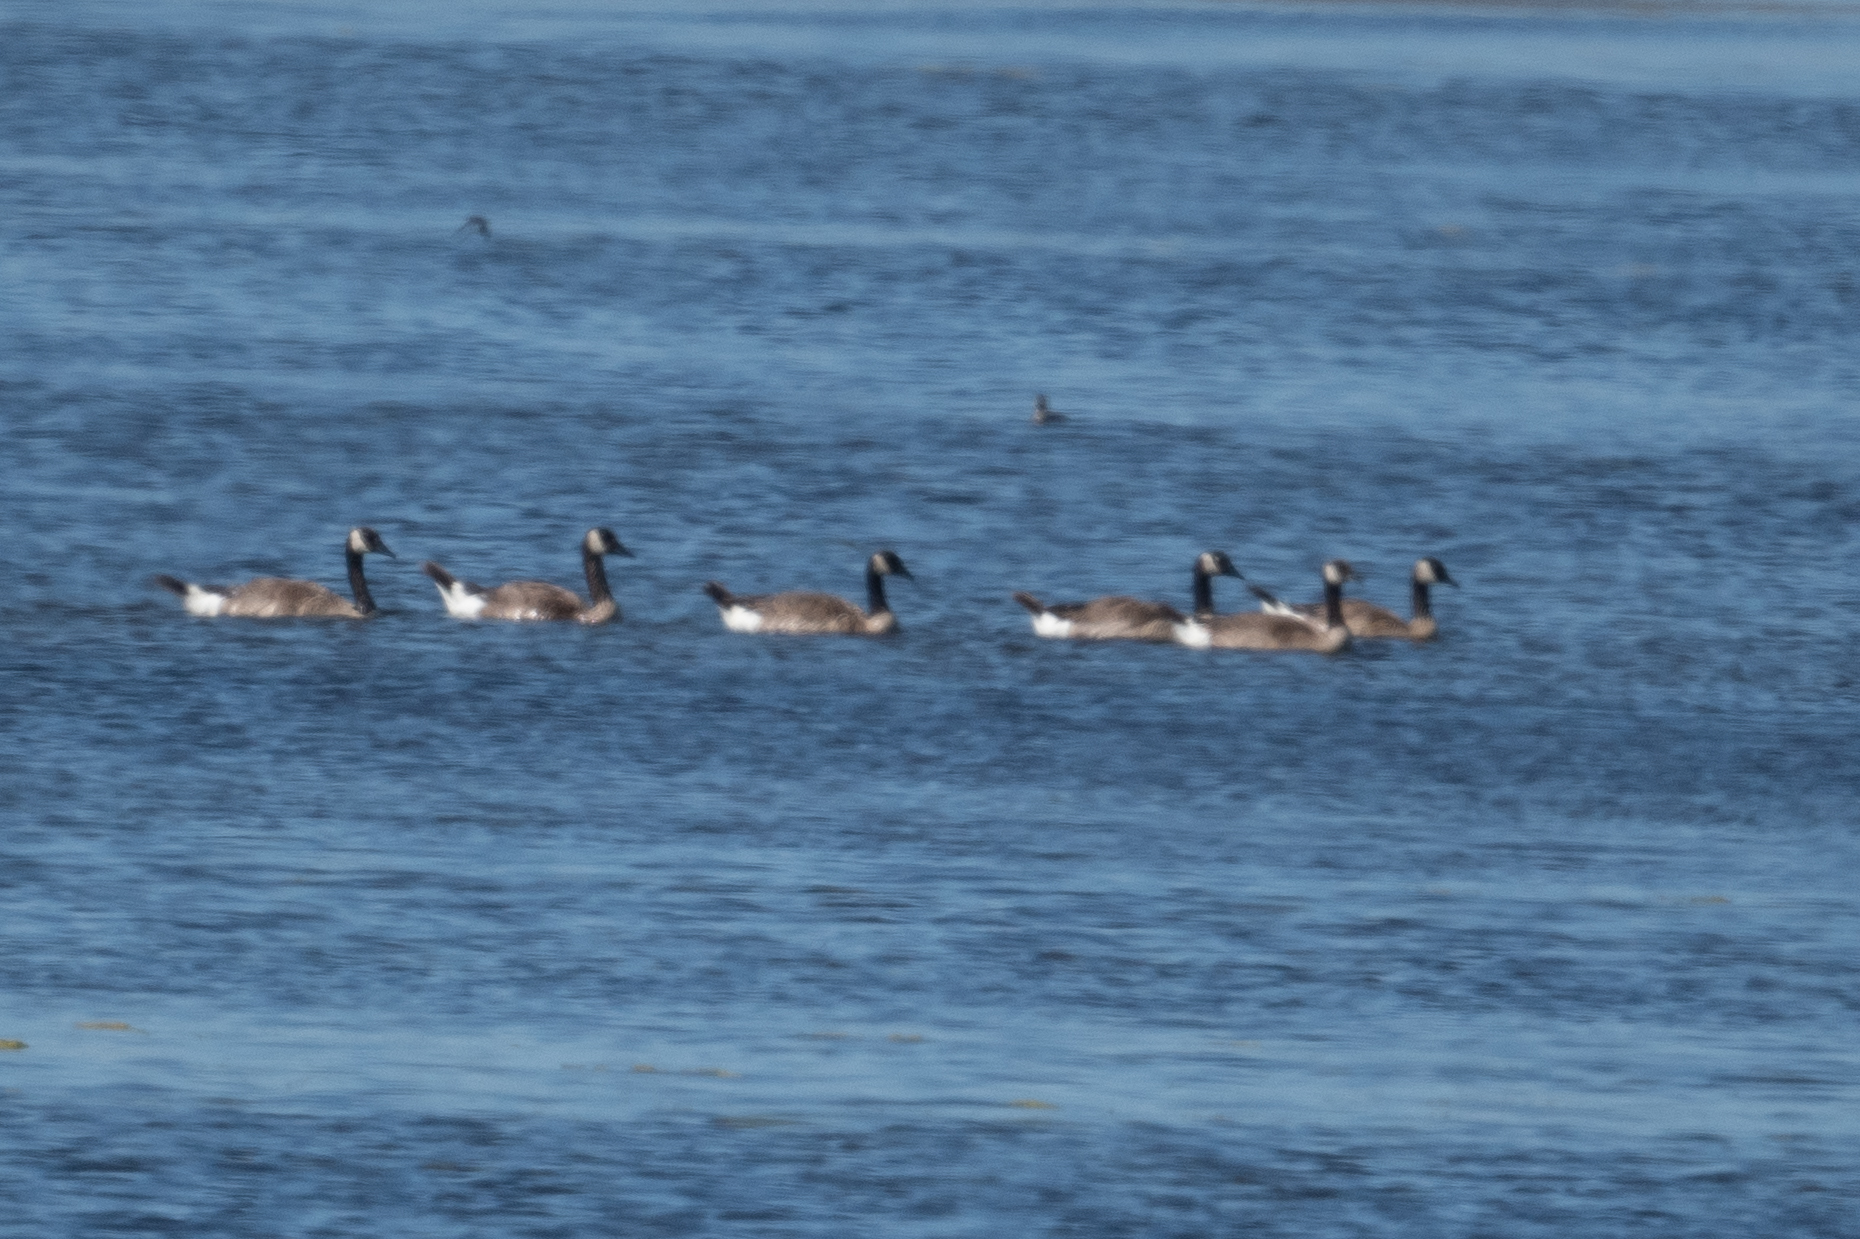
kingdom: Animalia
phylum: Chordata
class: Aves
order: Anseriformes
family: Anatidae
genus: Branta
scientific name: Branta canadensis
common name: Canada goose
